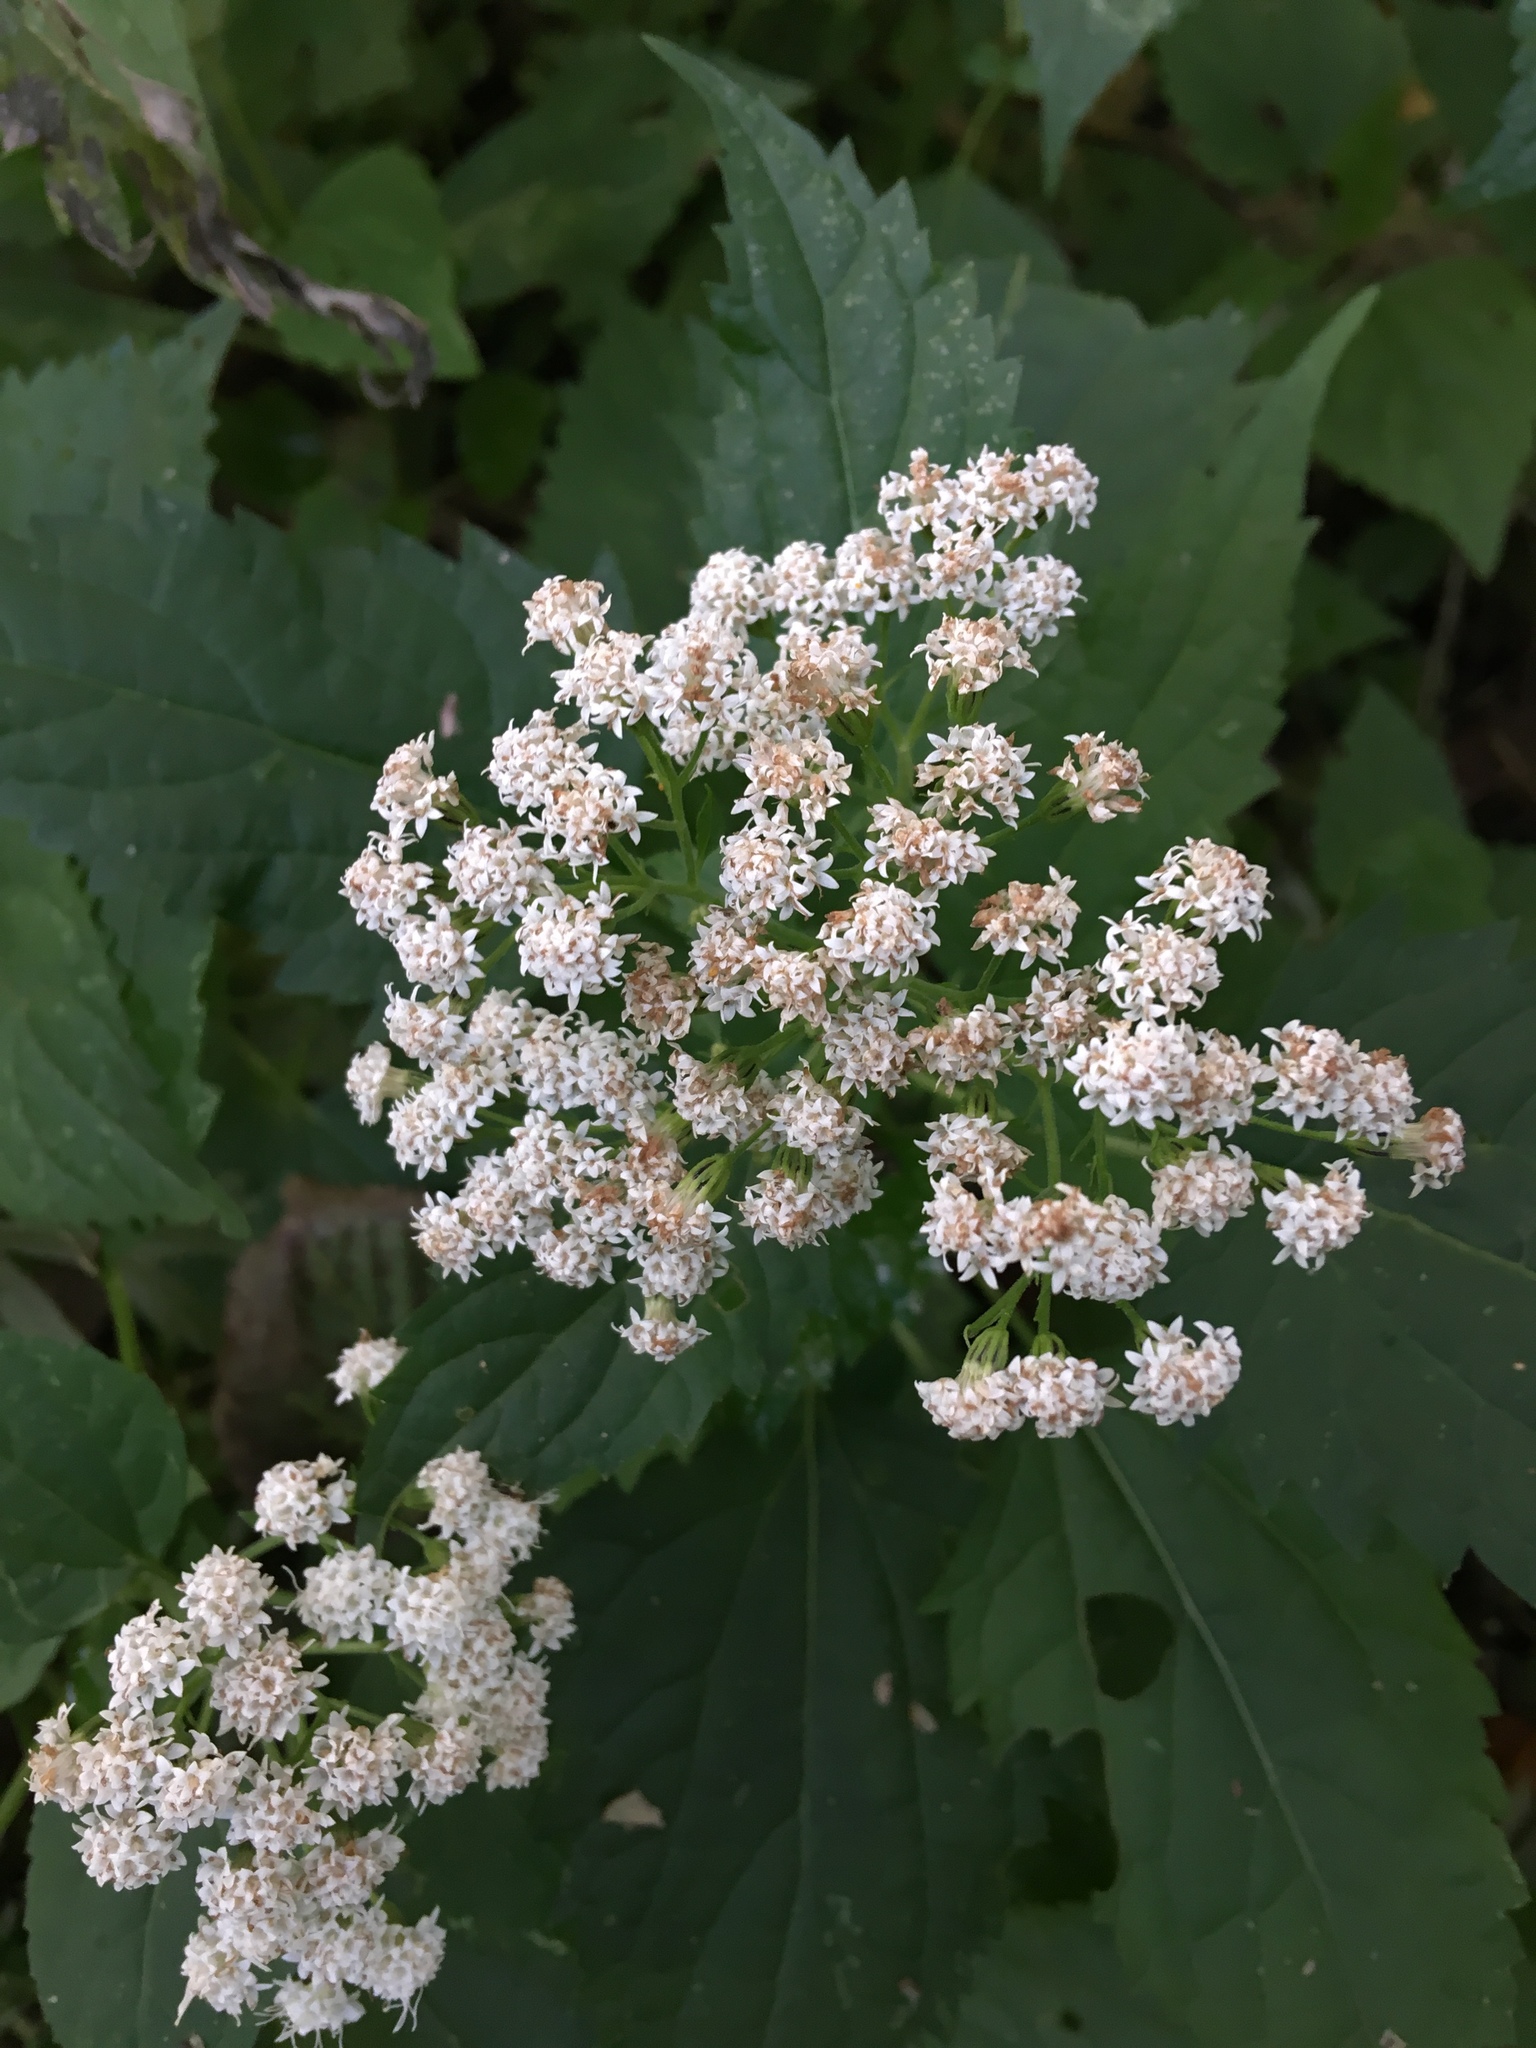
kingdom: Plantae
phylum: Tracheophyta
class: Magnoliopsida
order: Asterales
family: Asteraceae
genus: Ageratina
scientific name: Ageratina altissima
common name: White snakeroot
